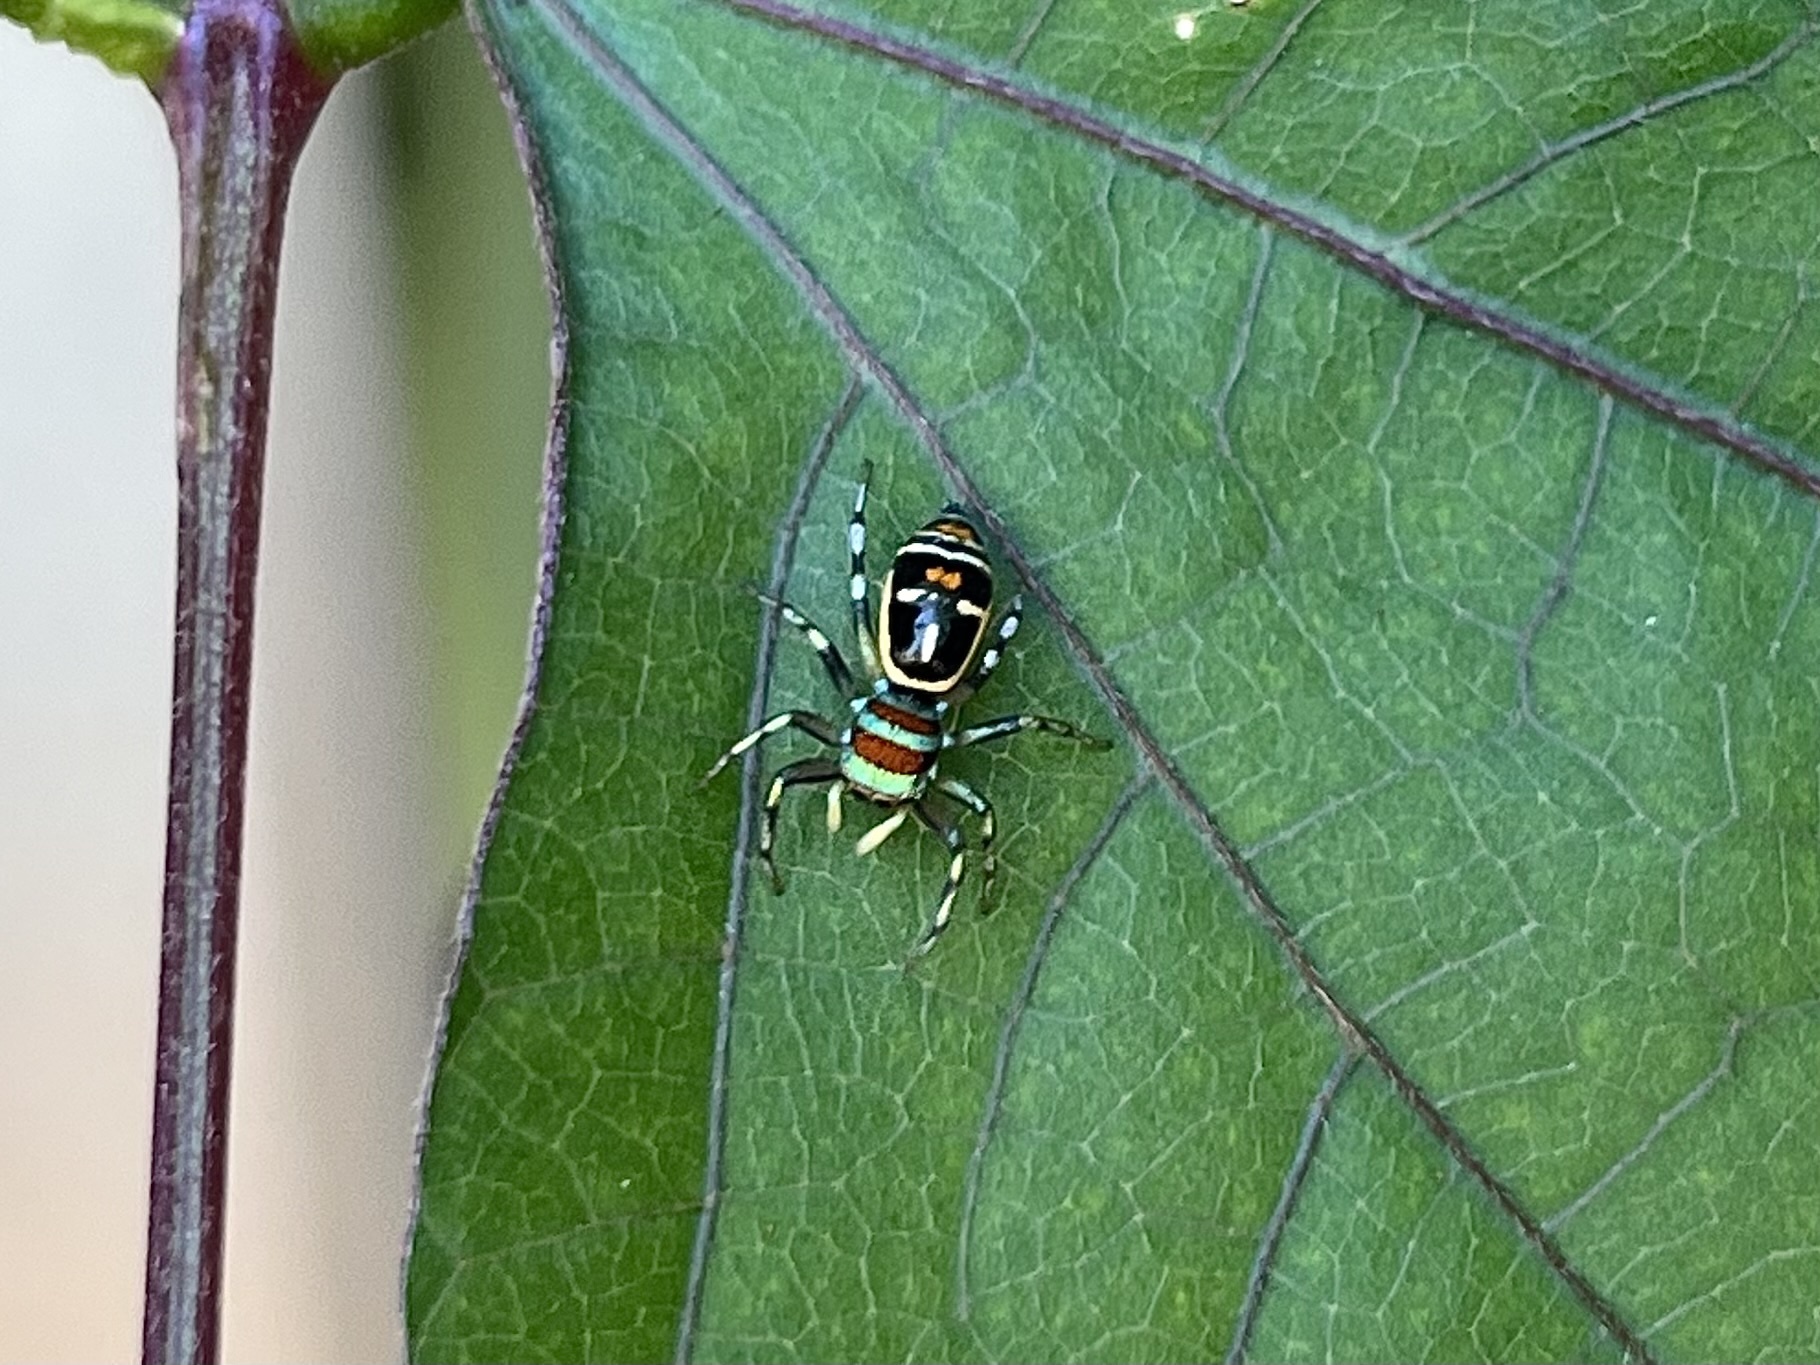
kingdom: Animalia
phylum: Arthropoda
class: Arachnida
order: Araneae
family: Salticidae
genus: Cosmophasis
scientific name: Cosmophasis micarioides
